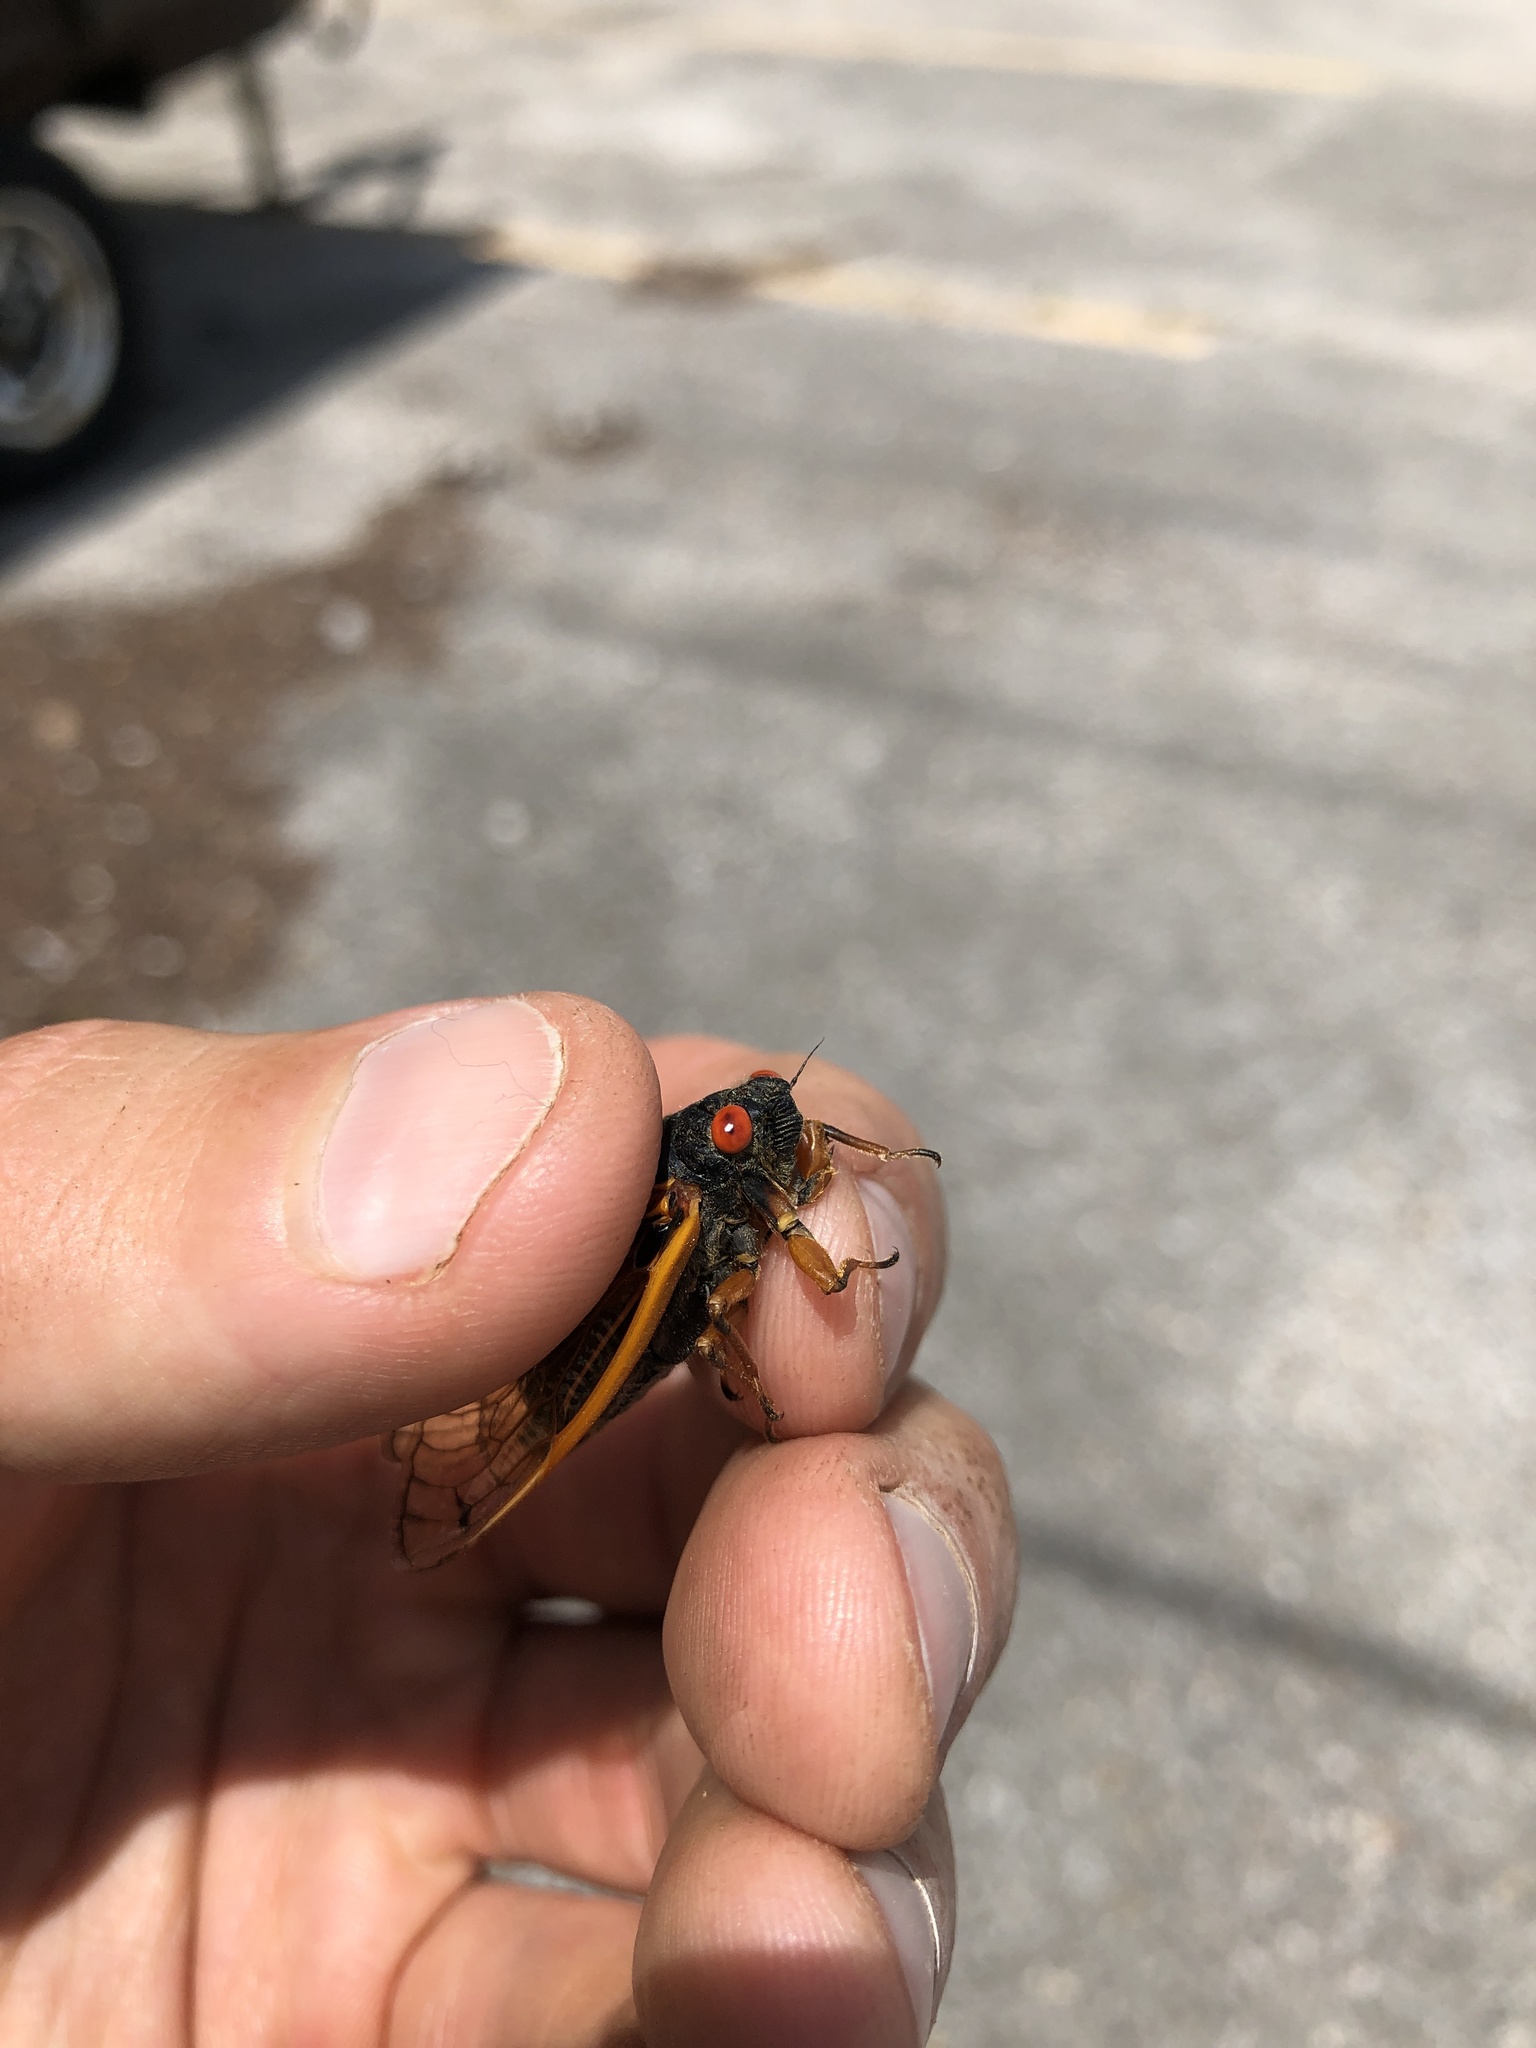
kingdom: Animalia
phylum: Arthropoda
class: Insecta
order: Hemiptera
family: Cicadidae
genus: Magicicada
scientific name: Magicicada cassini
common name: Cassin's 17-year cicada
